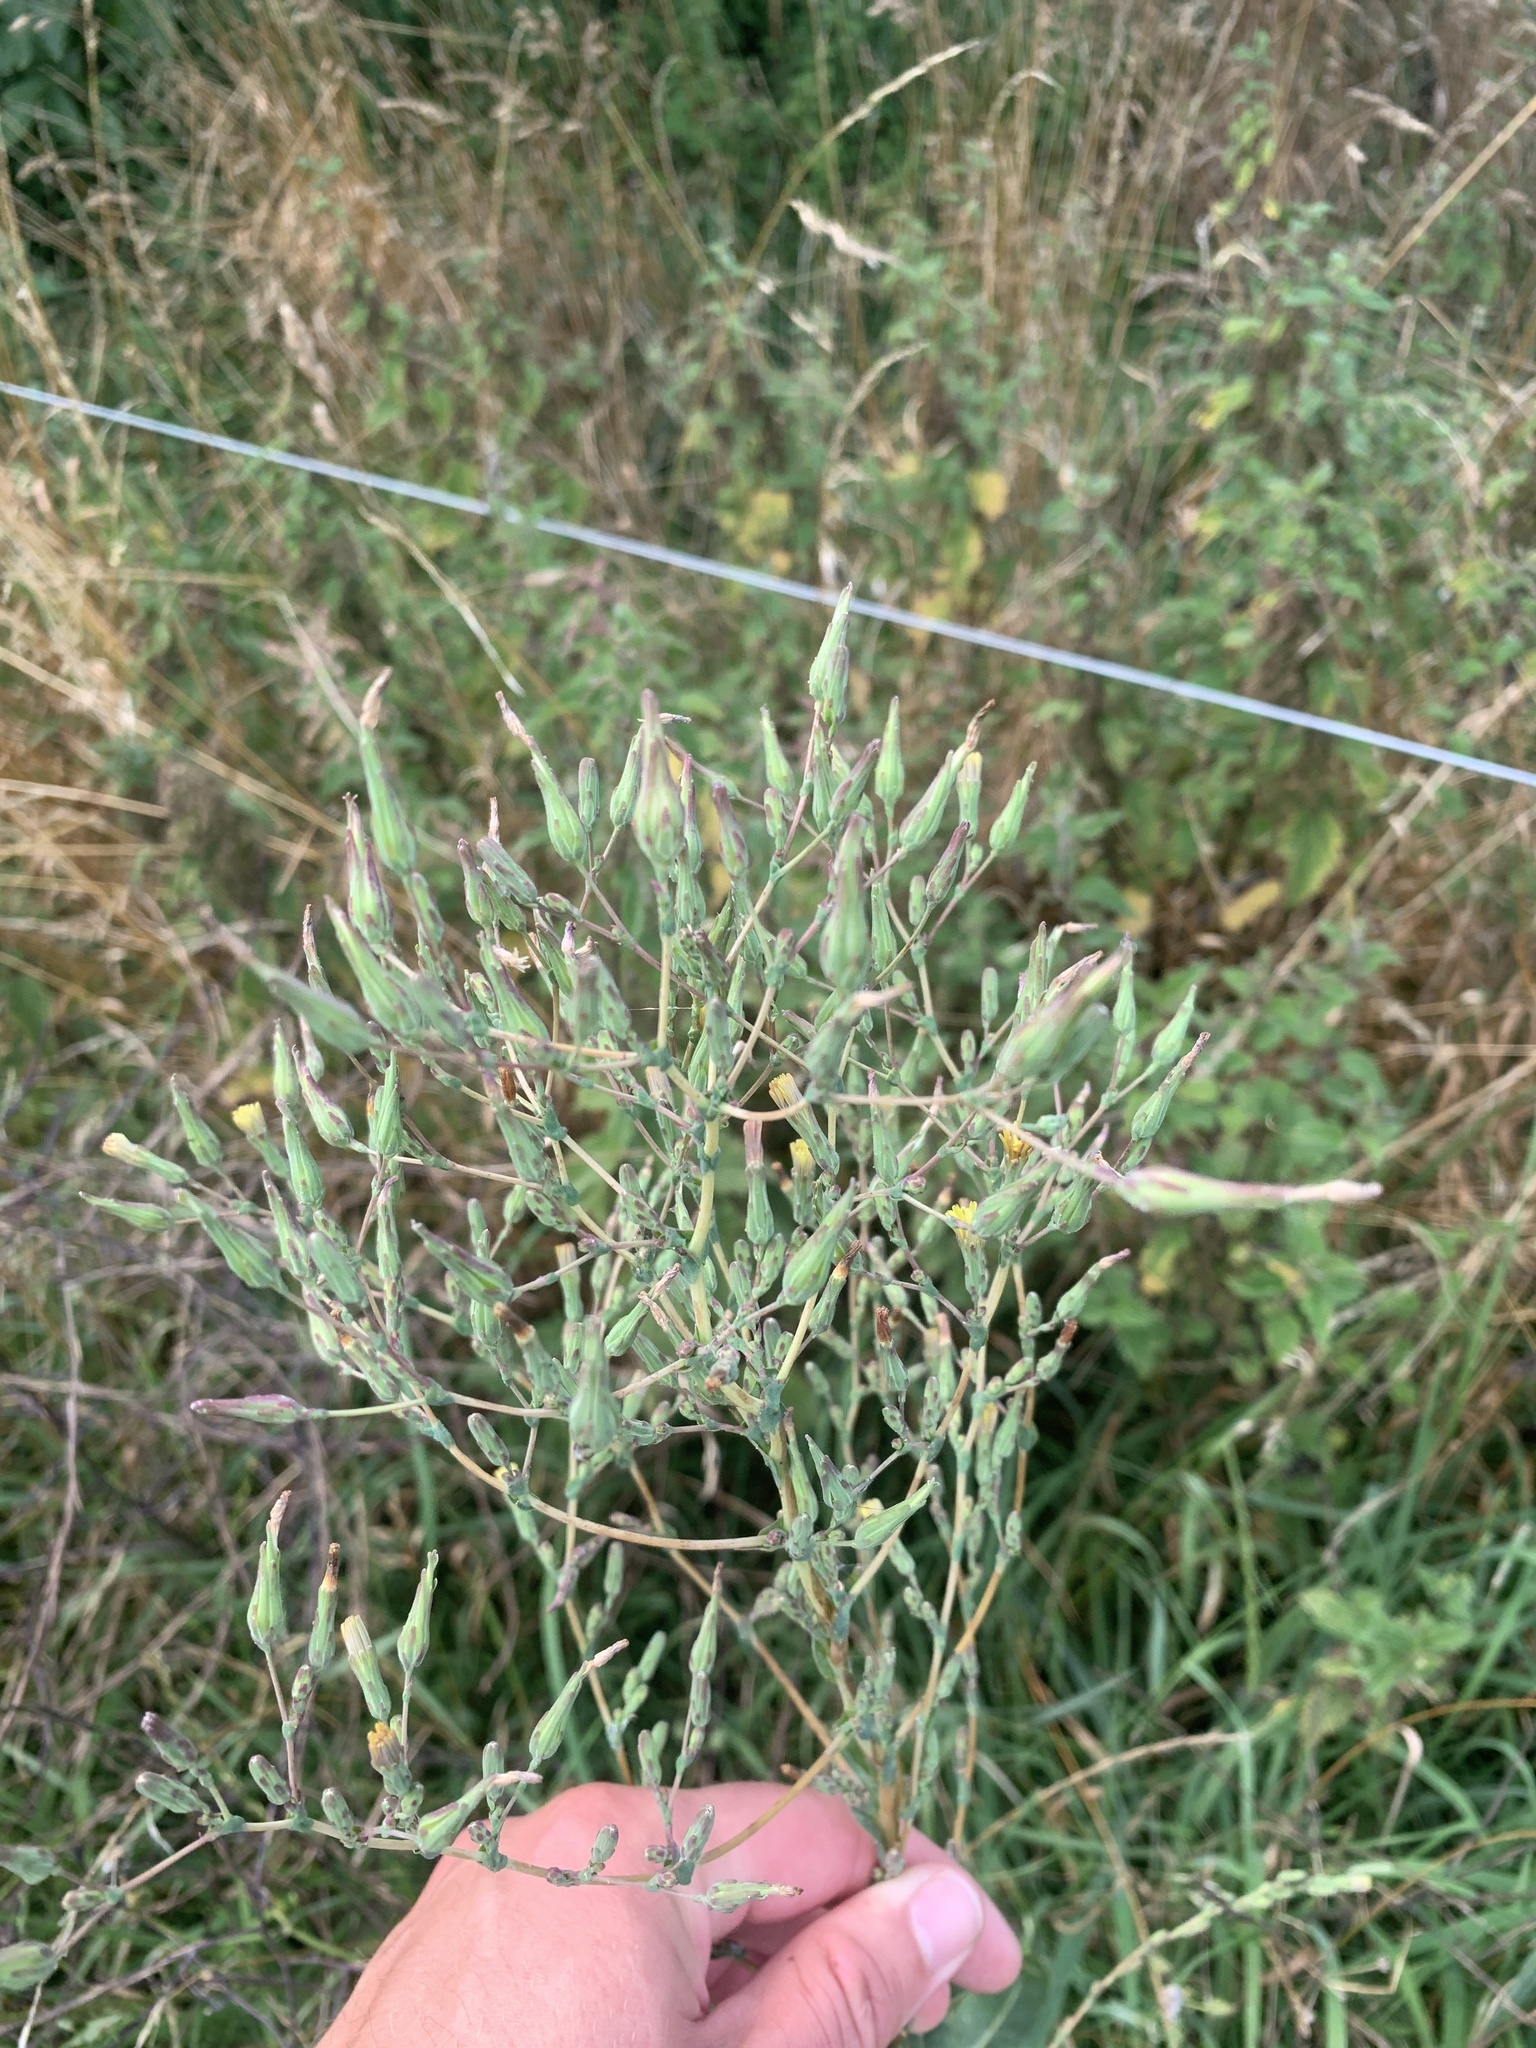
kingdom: Plantae
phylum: Tracheophyta
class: Magnoliopsida
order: Asterales
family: Asteraceae
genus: Lactuca
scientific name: Lactuca virosa
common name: Great lettuce
